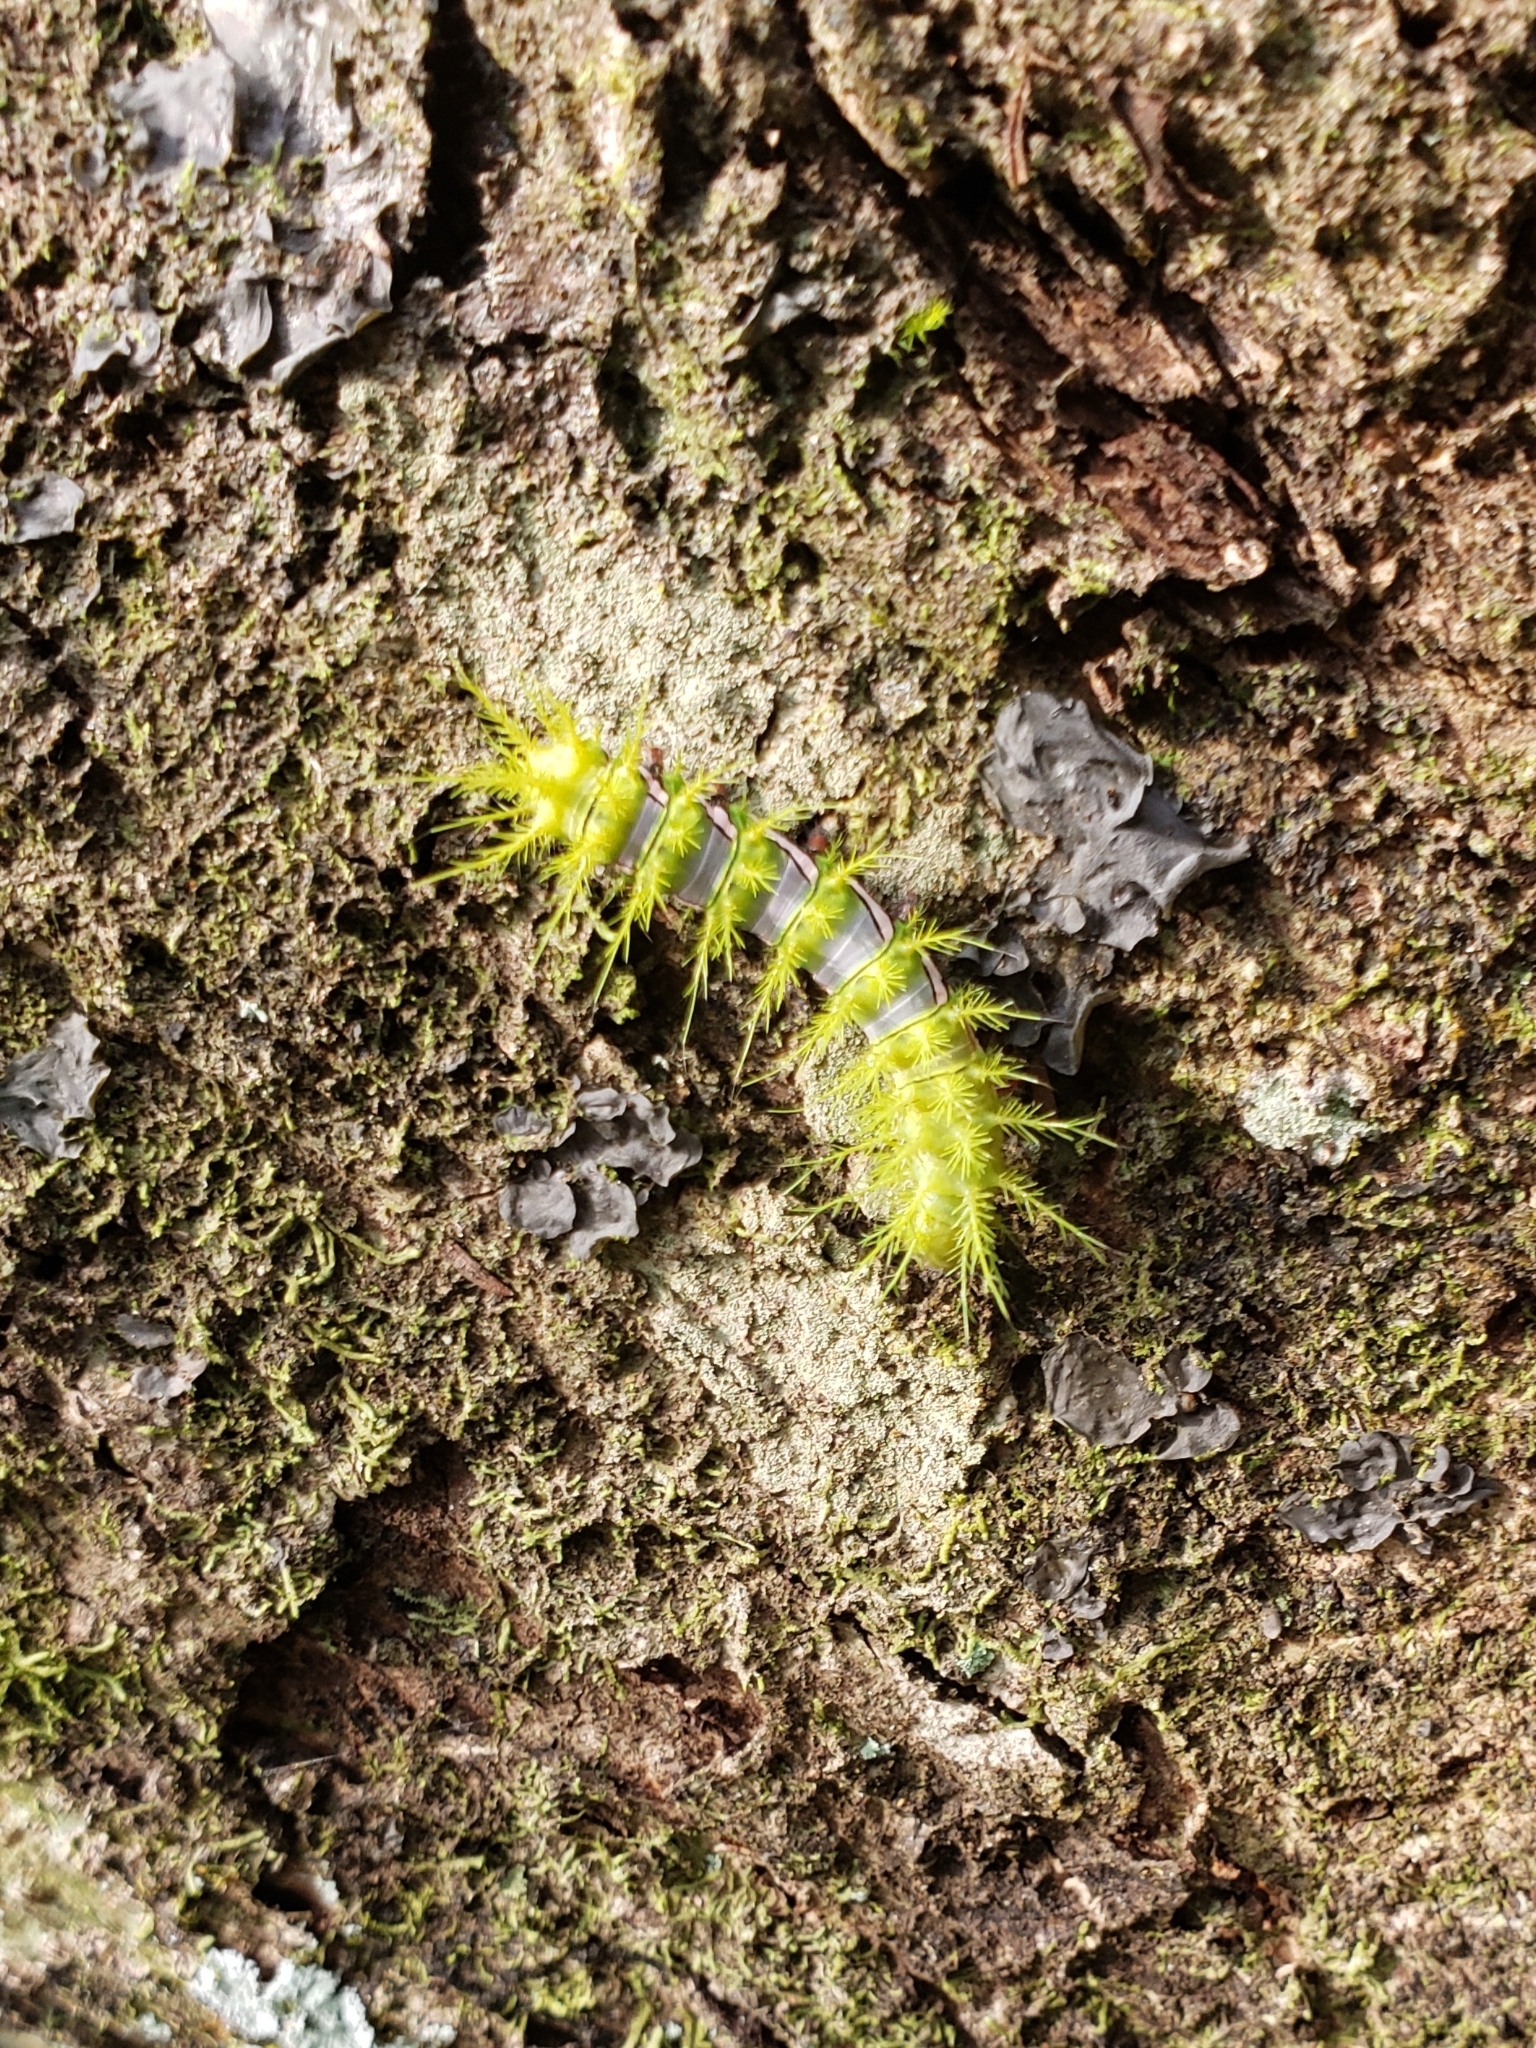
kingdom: Animalia
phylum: Arthropoda
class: Insecta
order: Lepidoptera
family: Saturniidae
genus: Automeris
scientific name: Automeris naranja
